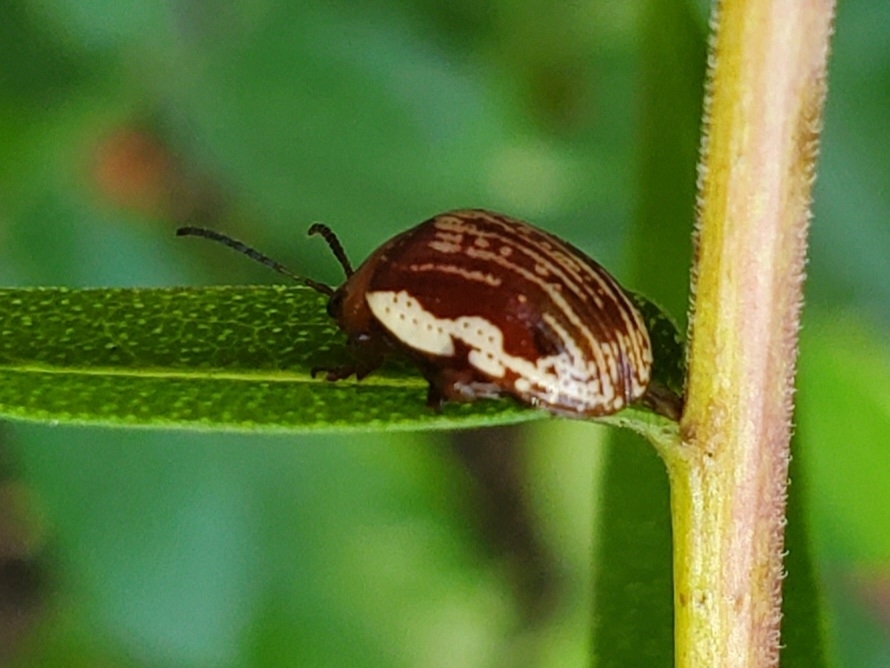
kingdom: Animalia
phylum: Arthropoda
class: Insecta
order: Coleoptera
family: Chrysomelidae
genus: Blepharida
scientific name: Blepharida rhois
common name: Sumac flea beetle
